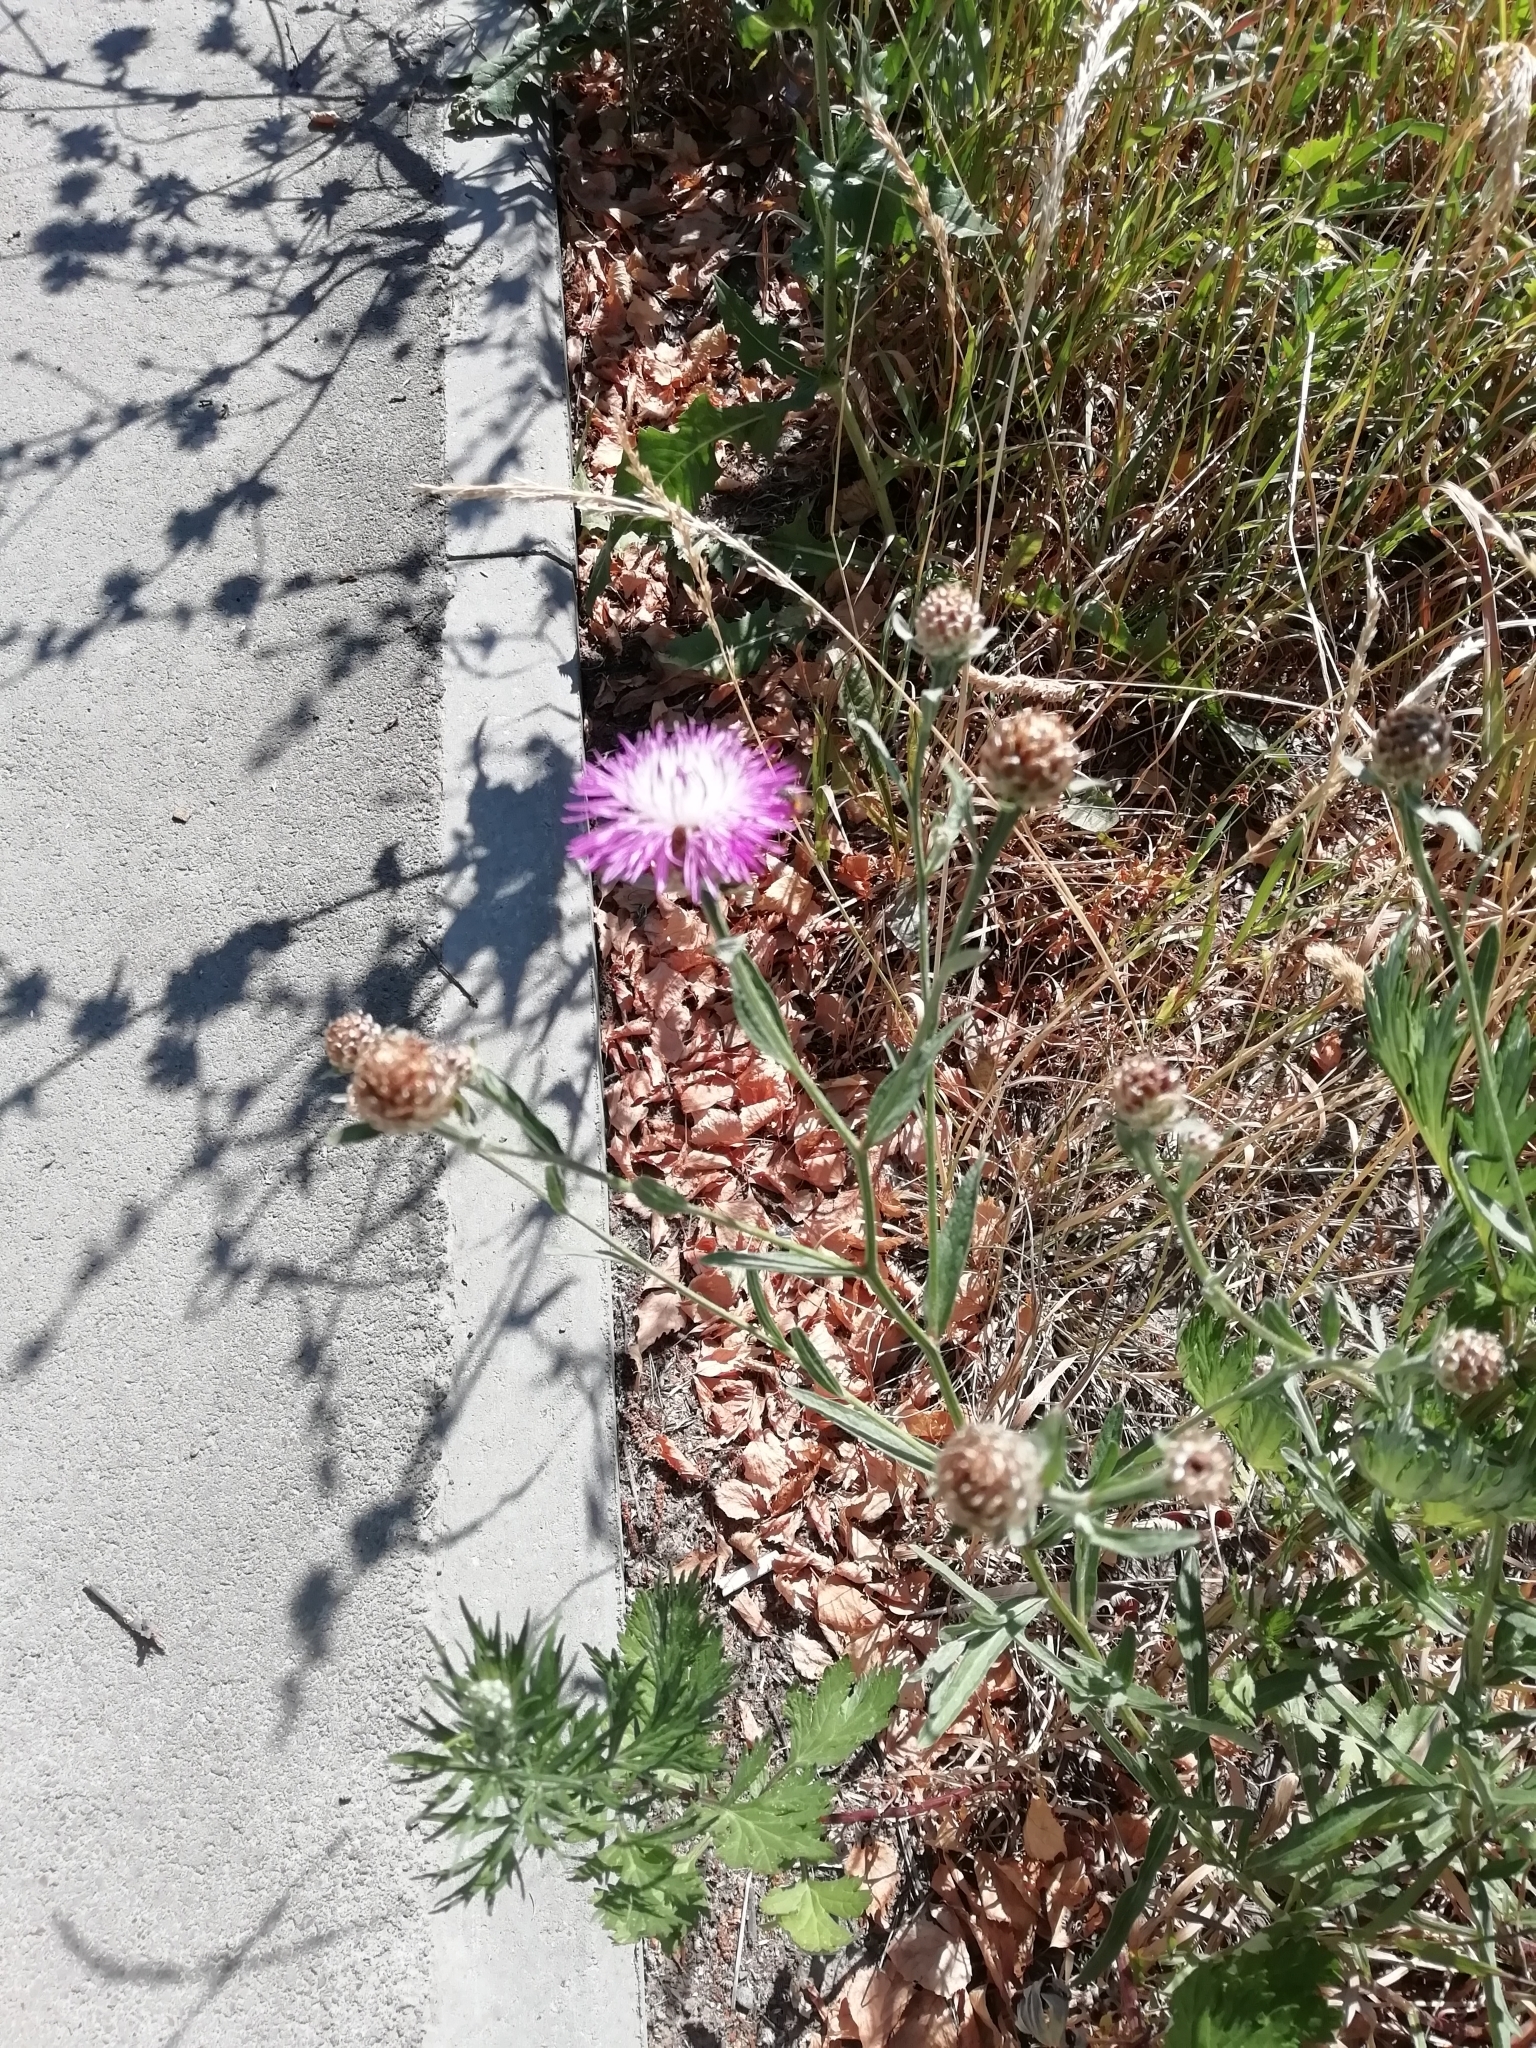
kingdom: Plantae
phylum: Tracheophyta
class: Magnoliopsida
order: Asterales
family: Asteraceae
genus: Centaurea
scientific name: Centaurea jacea
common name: Brown knapweed
